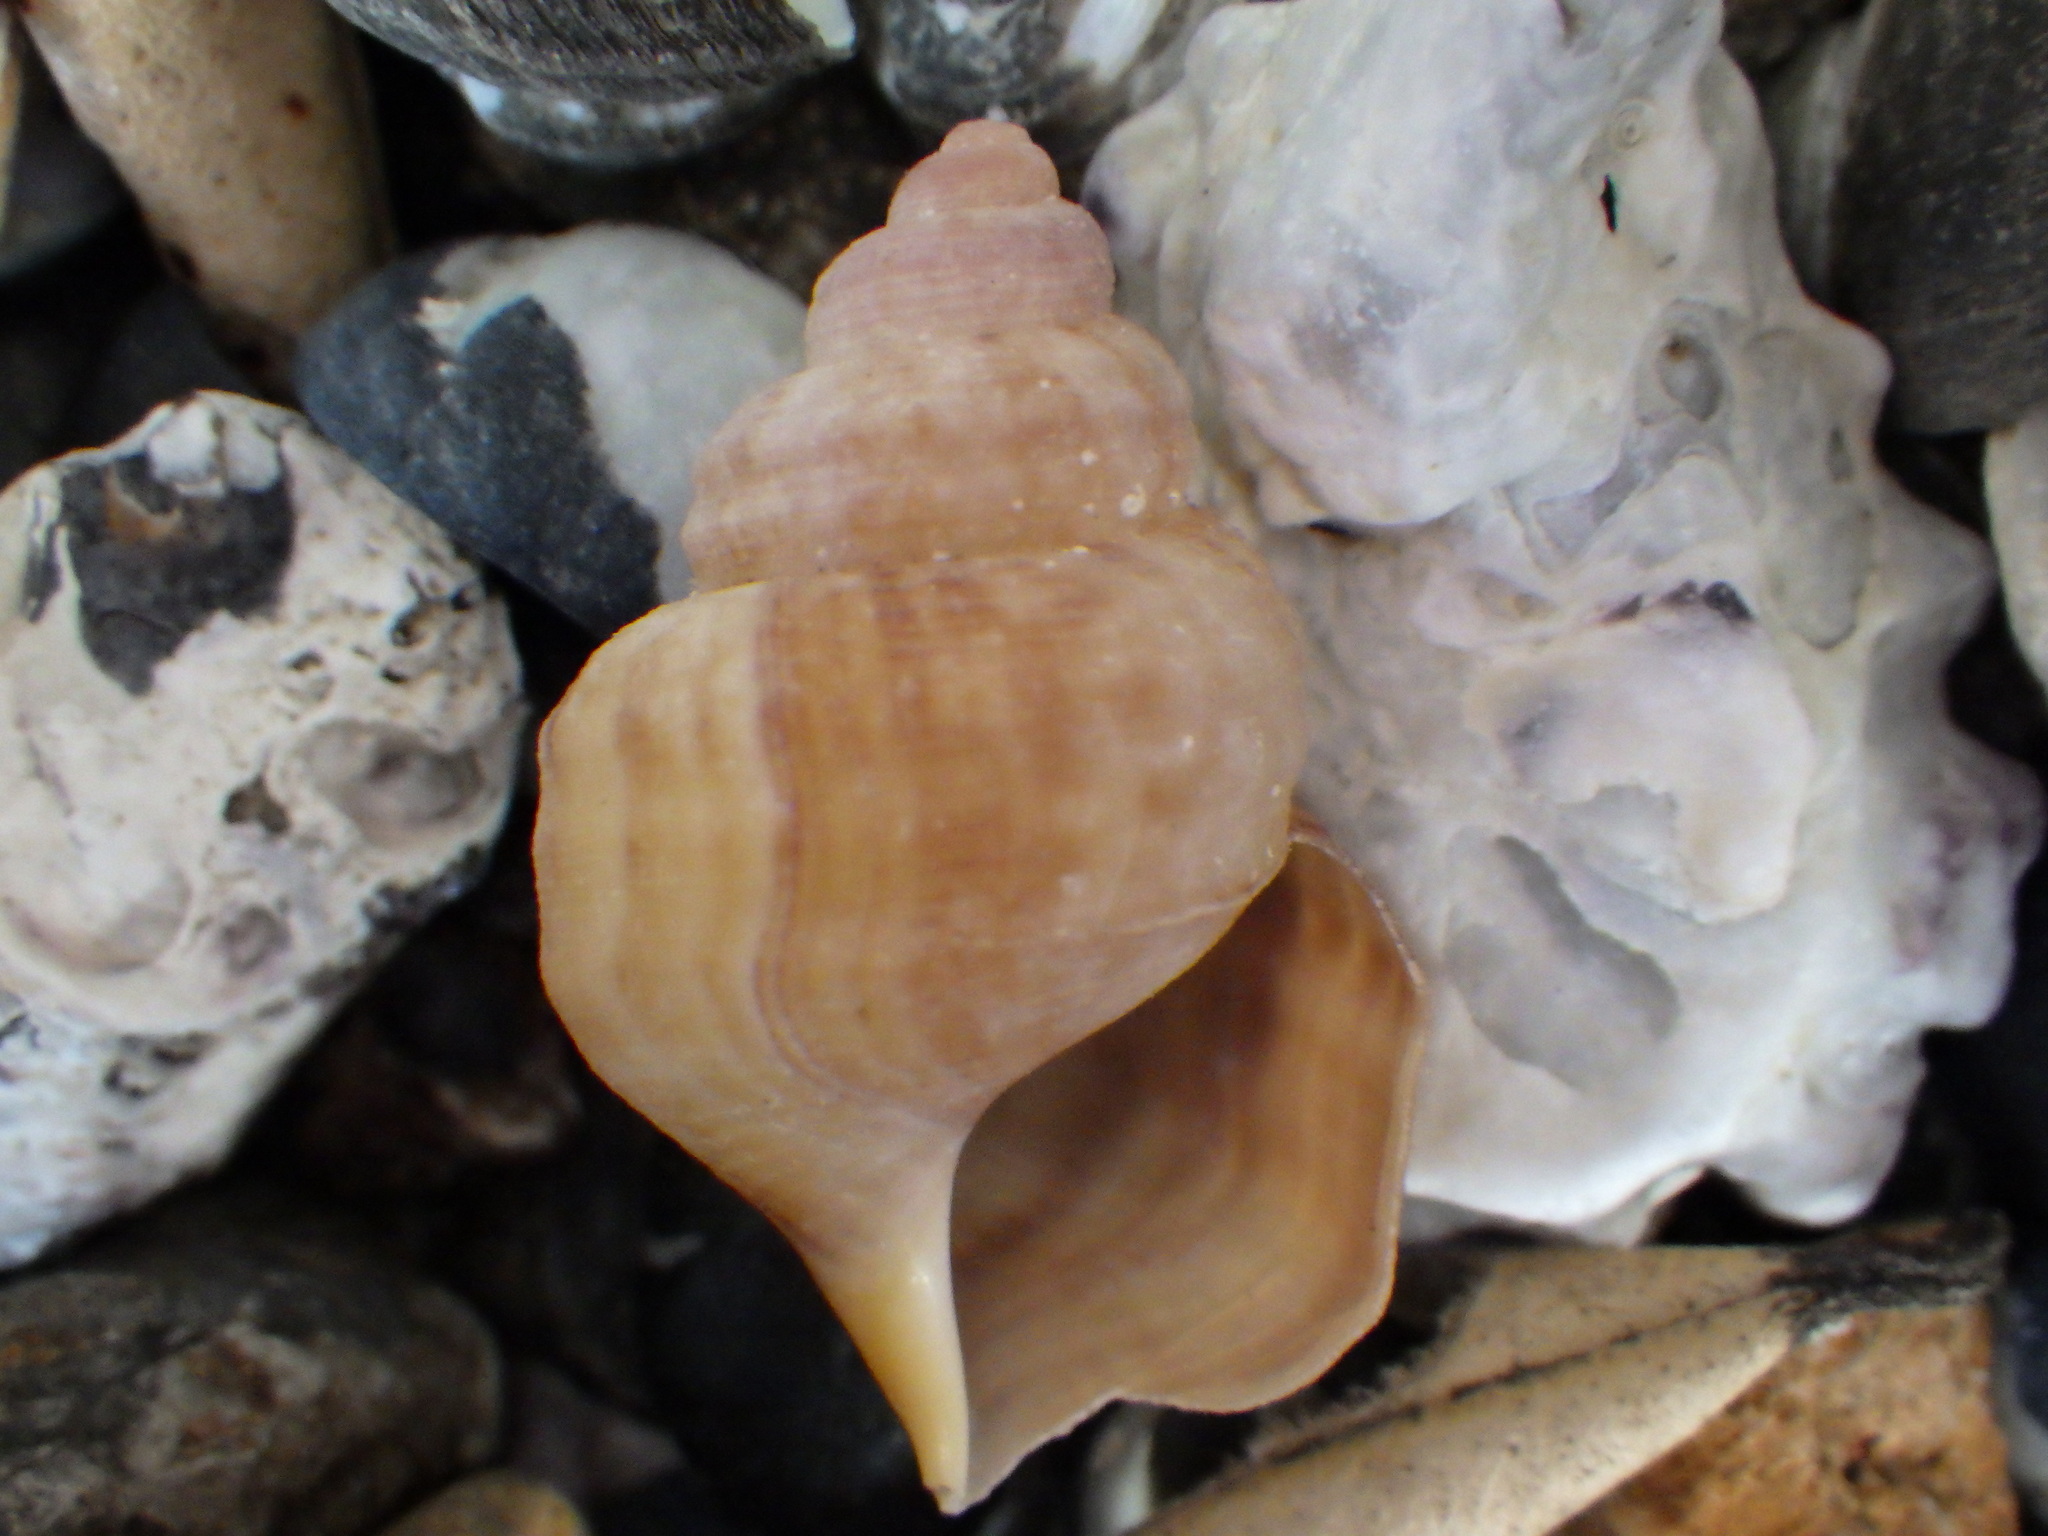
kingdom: Animalia
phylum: Mollusca
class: Gastropoda
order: Littorinimorpha
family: Struthiolariidae
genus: Pelicaria
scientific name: Pelicaria vermis
